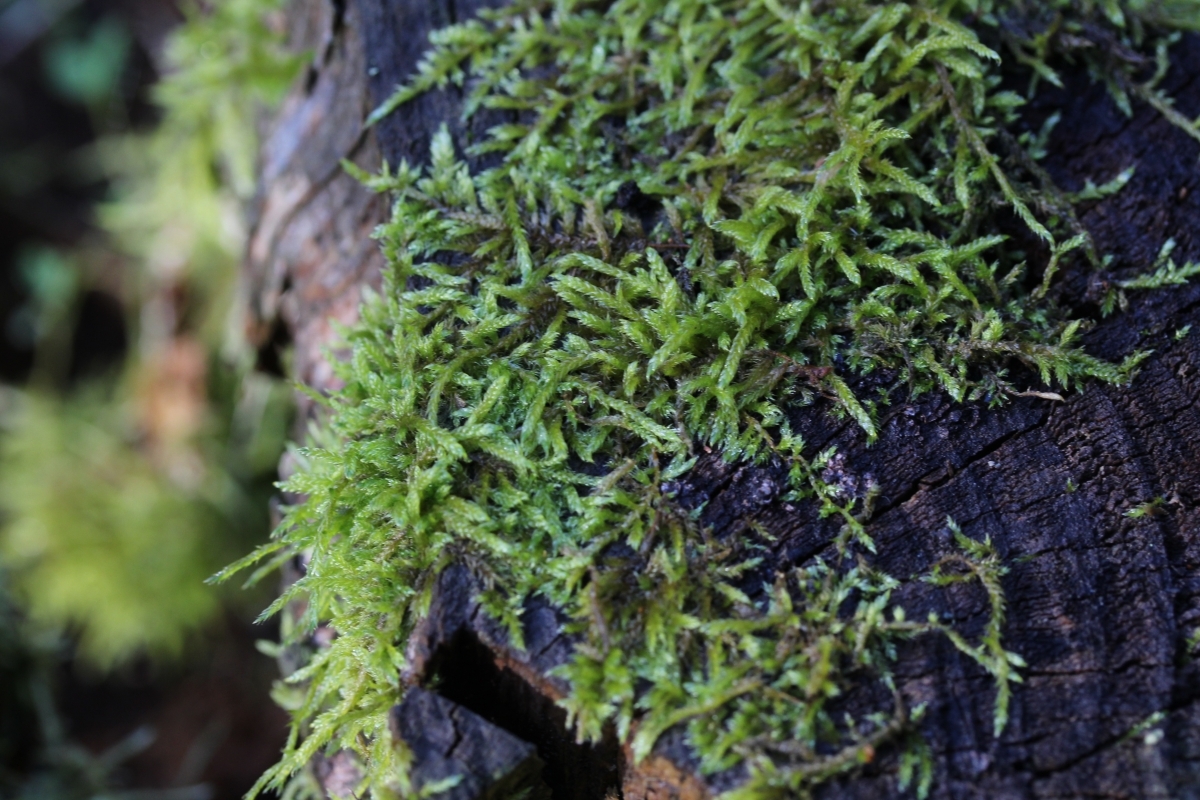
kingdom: Plantae
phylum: Bryophyta
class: Bryopsida
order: Hypnales
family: Hypnaceae
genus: Hypnum
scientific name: Hypnum cupressiforme
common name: Cypress-leaved plait-moss
